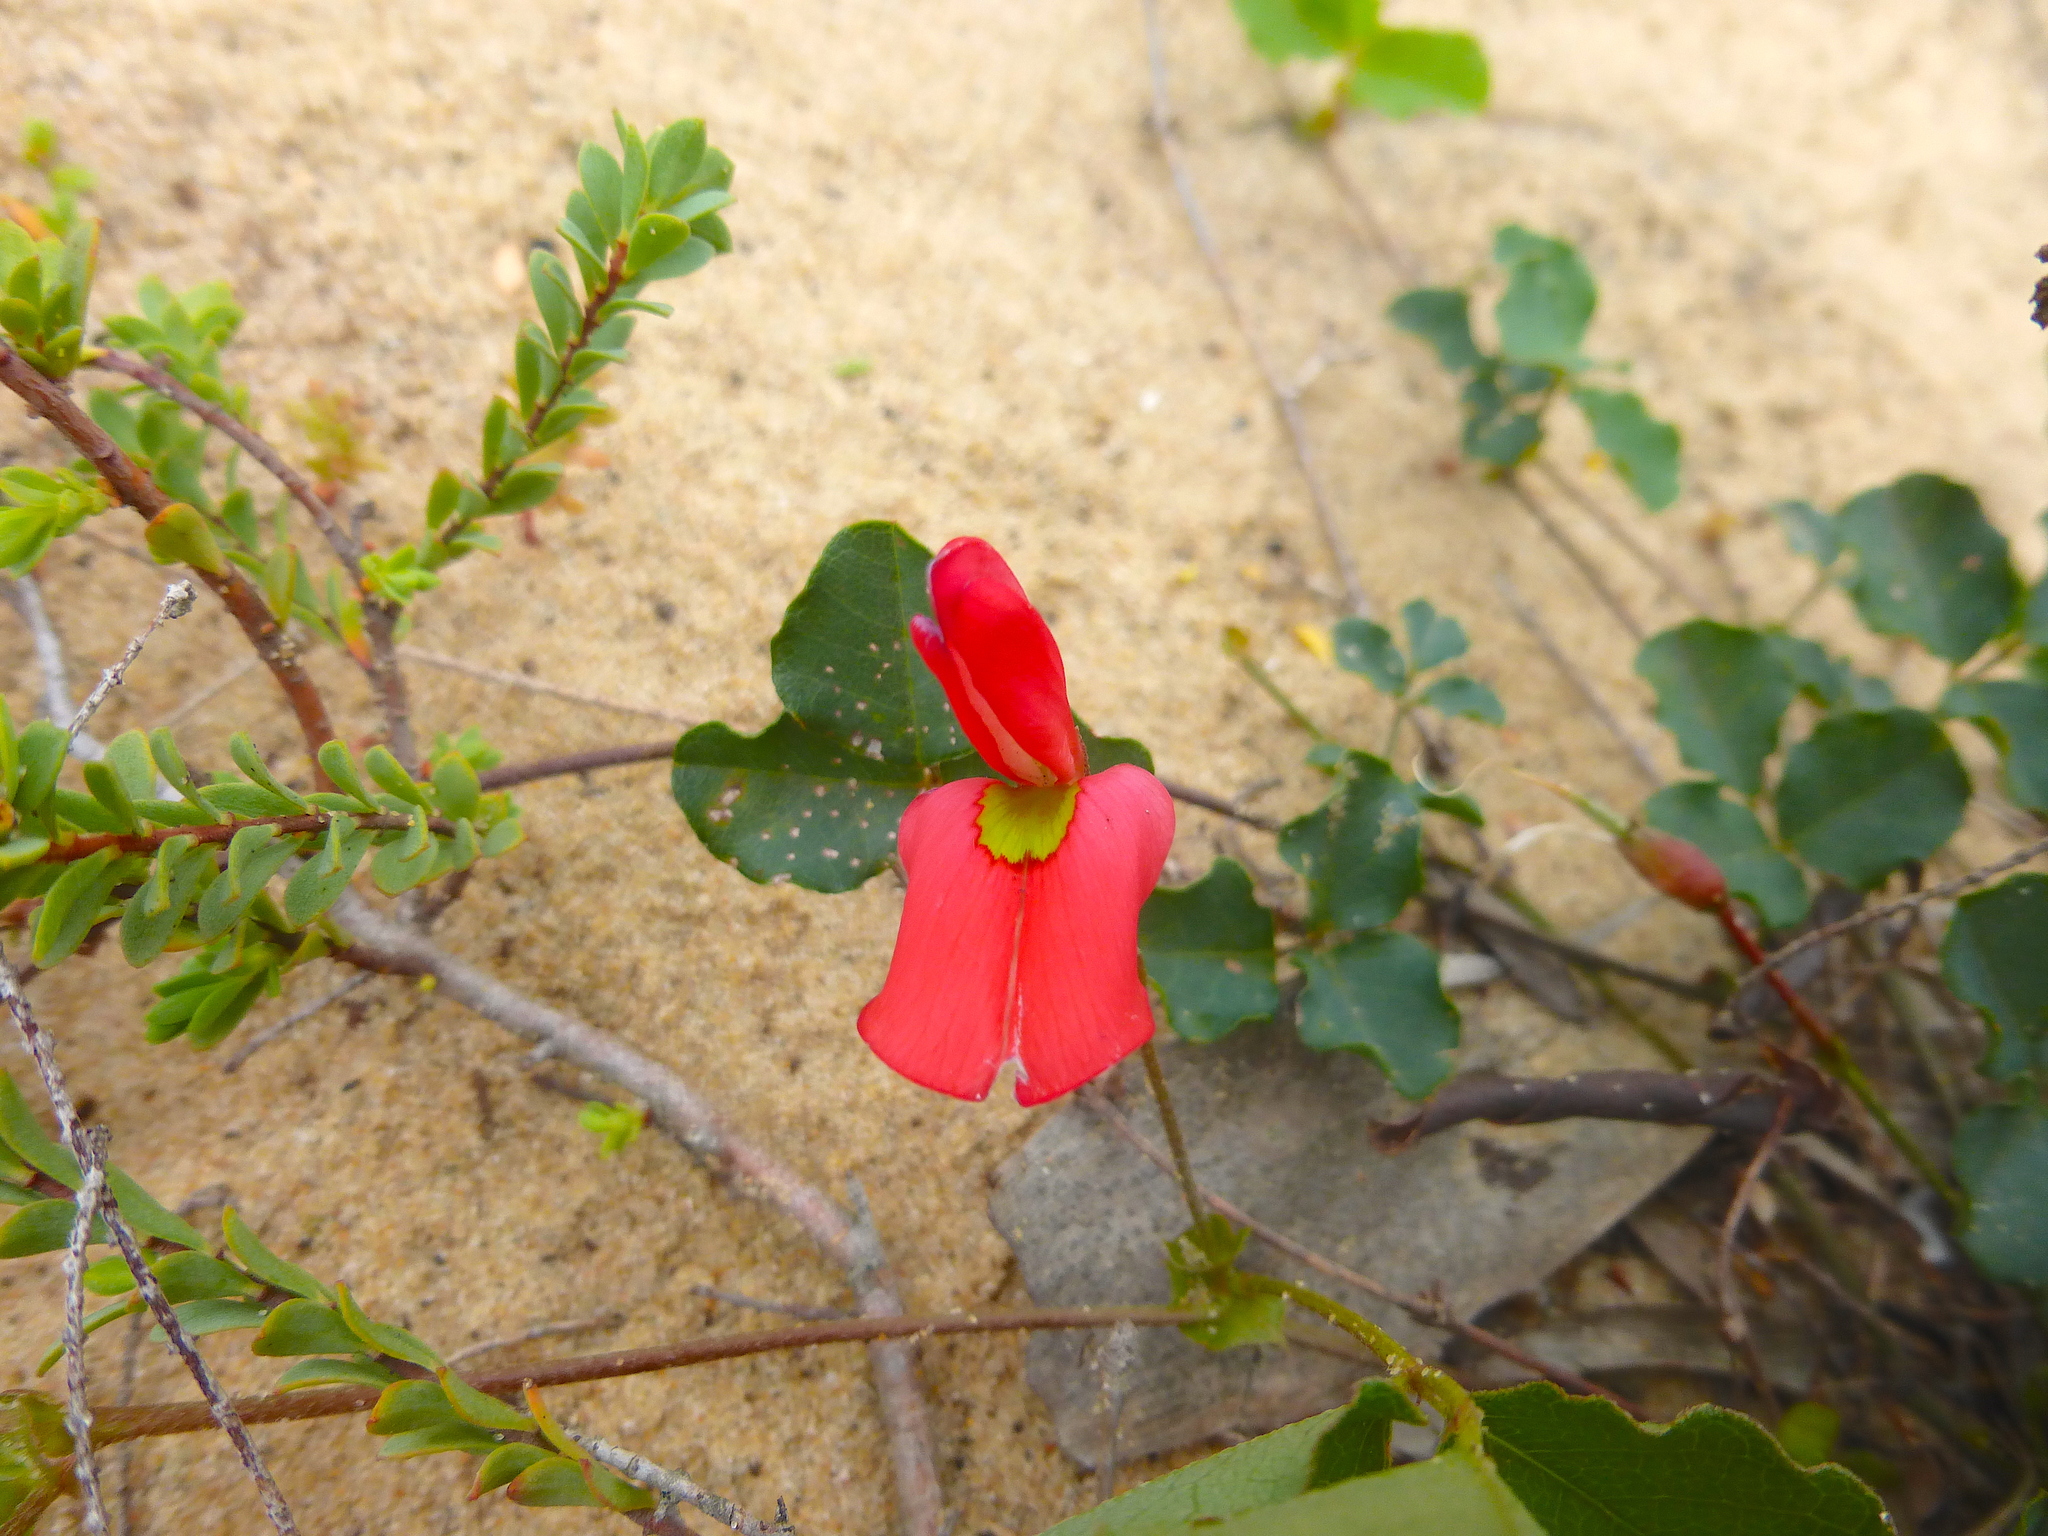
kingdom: Plantae
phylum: Tracheophyta
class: Magnoliopsida
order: Fabales
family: Fabaceae
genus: Kennedia
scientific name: Kennedia prostrata
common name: Running-postman
